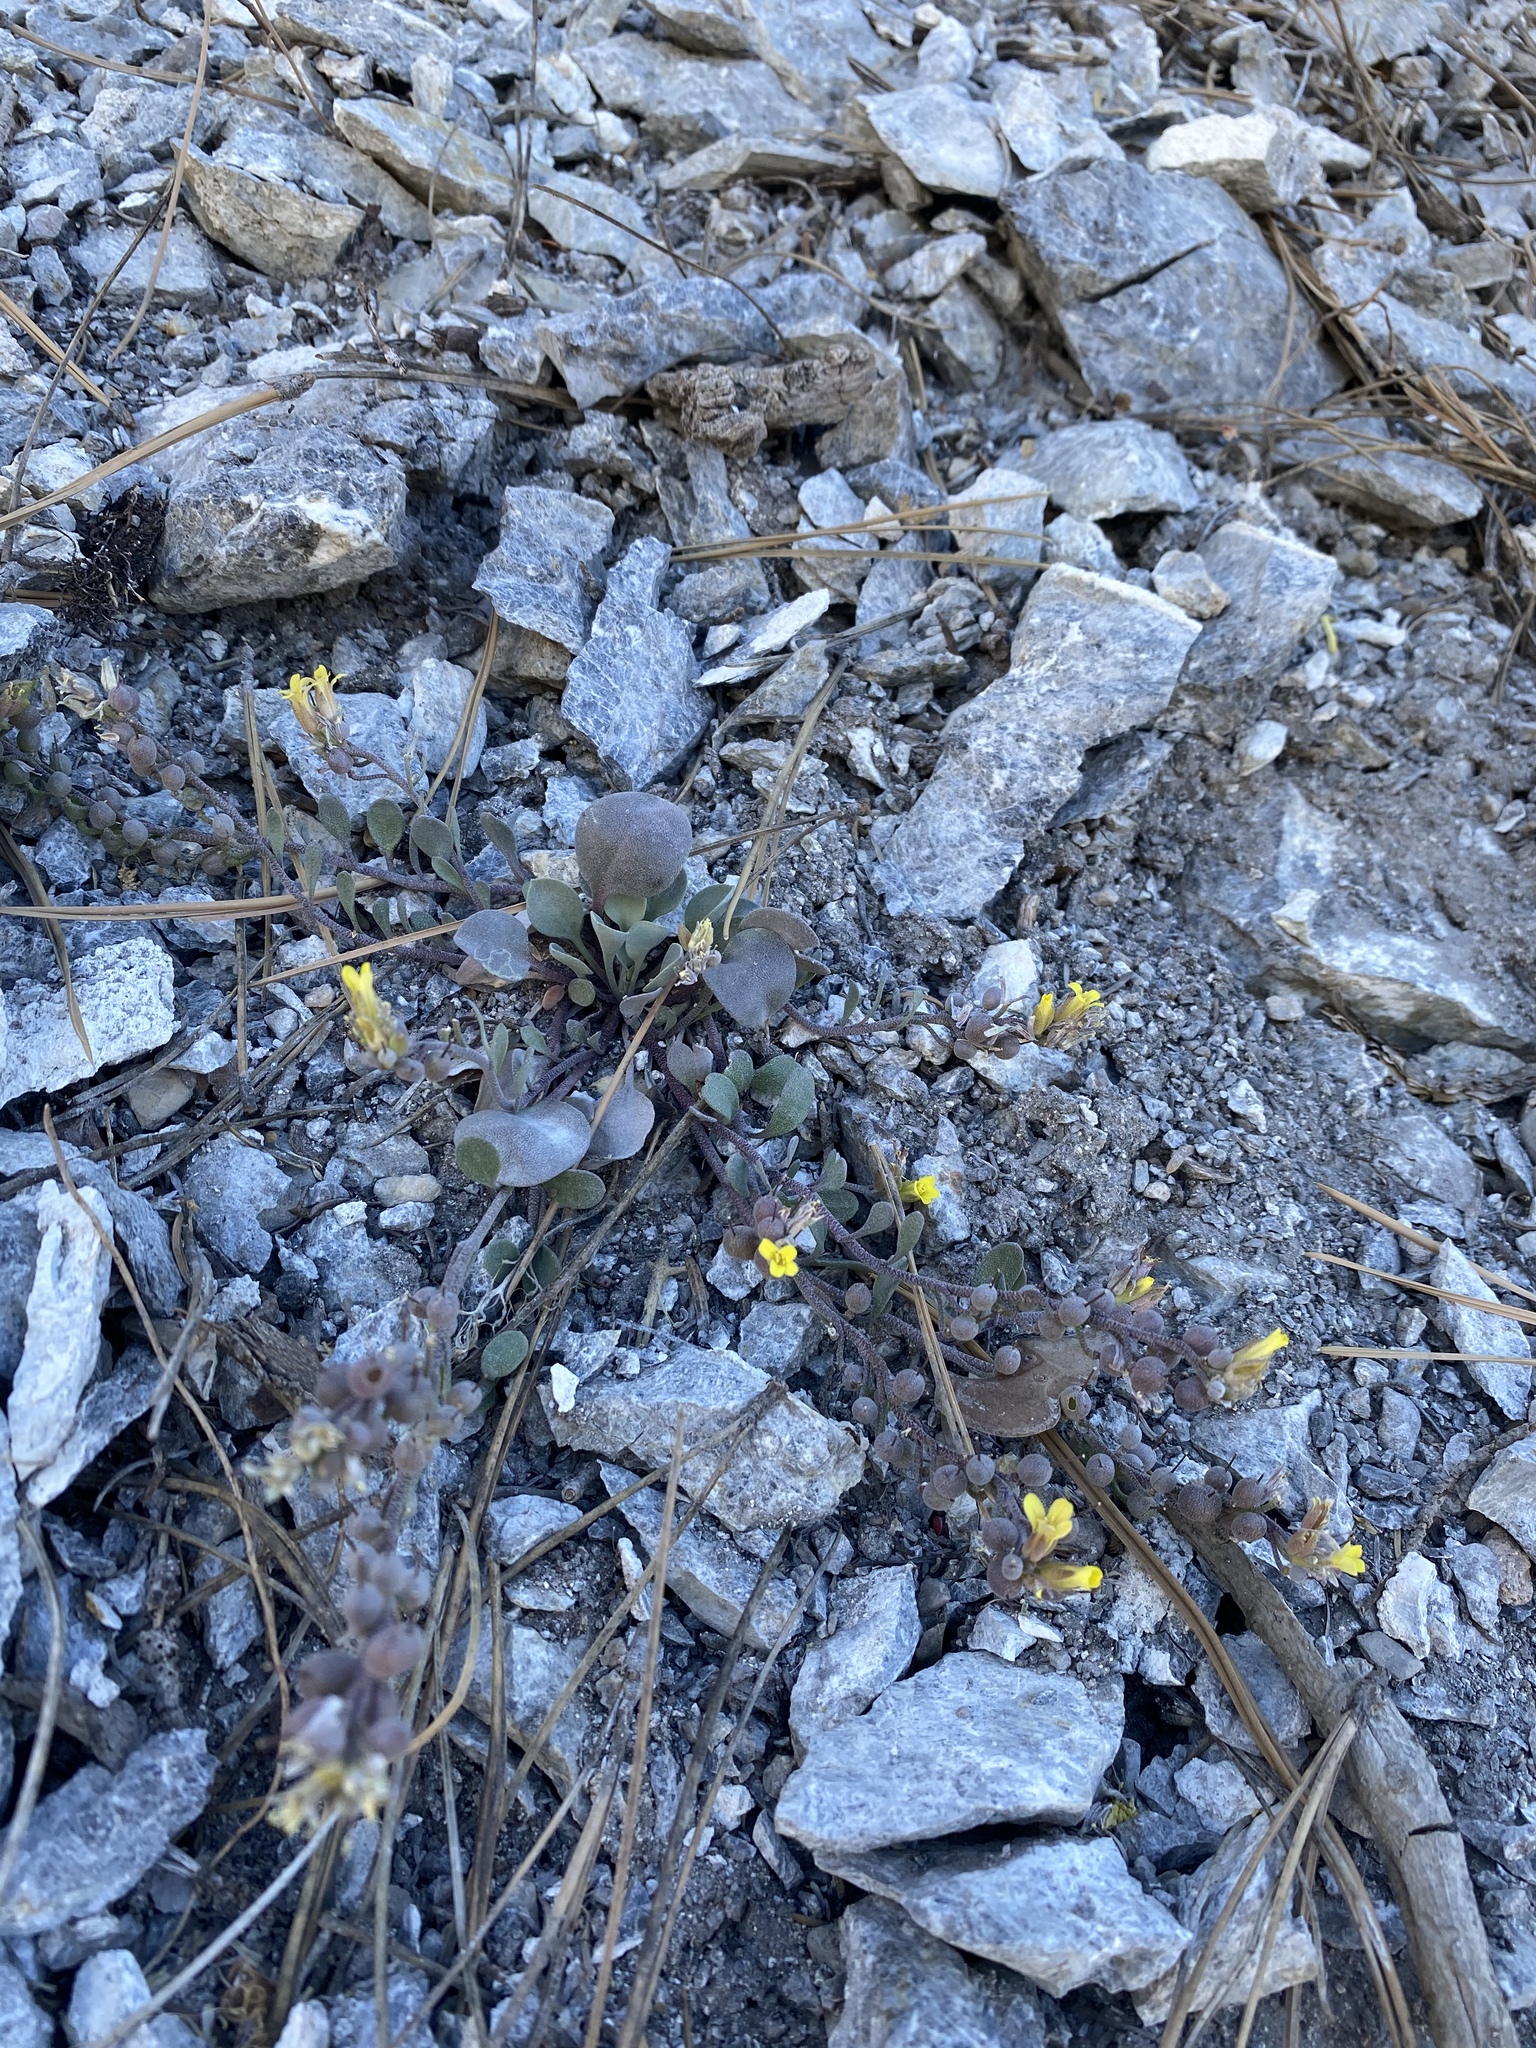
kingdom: Plantae
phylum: Tracheophyta
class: Magnoliopsida
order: Brassicales
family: Brassicaceae
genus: Physaria
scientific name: Physaria hitchcockii
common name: Hitchcock's bladderpod
